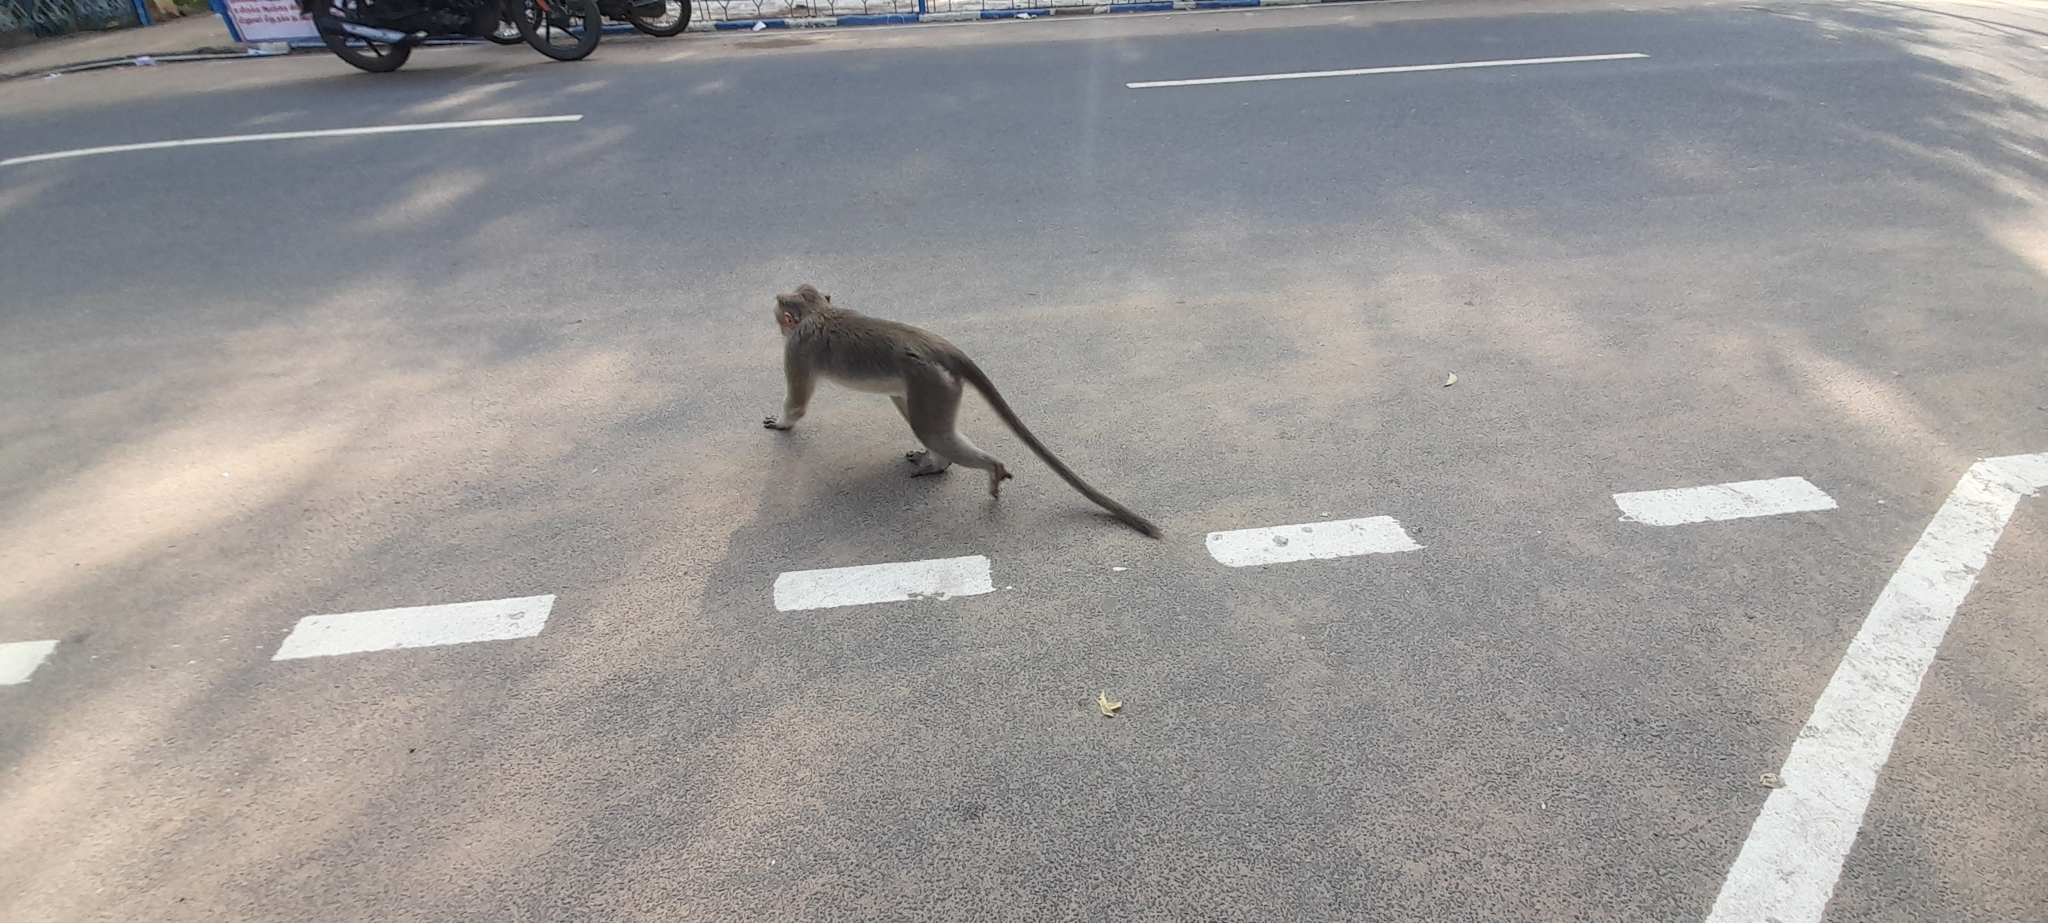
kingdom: Animalia
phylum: Chordata
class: Mammalia
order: Primates
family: Cercopithecidae
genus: Macaca
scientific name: Macaca radiata
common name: Bonnet macaque
